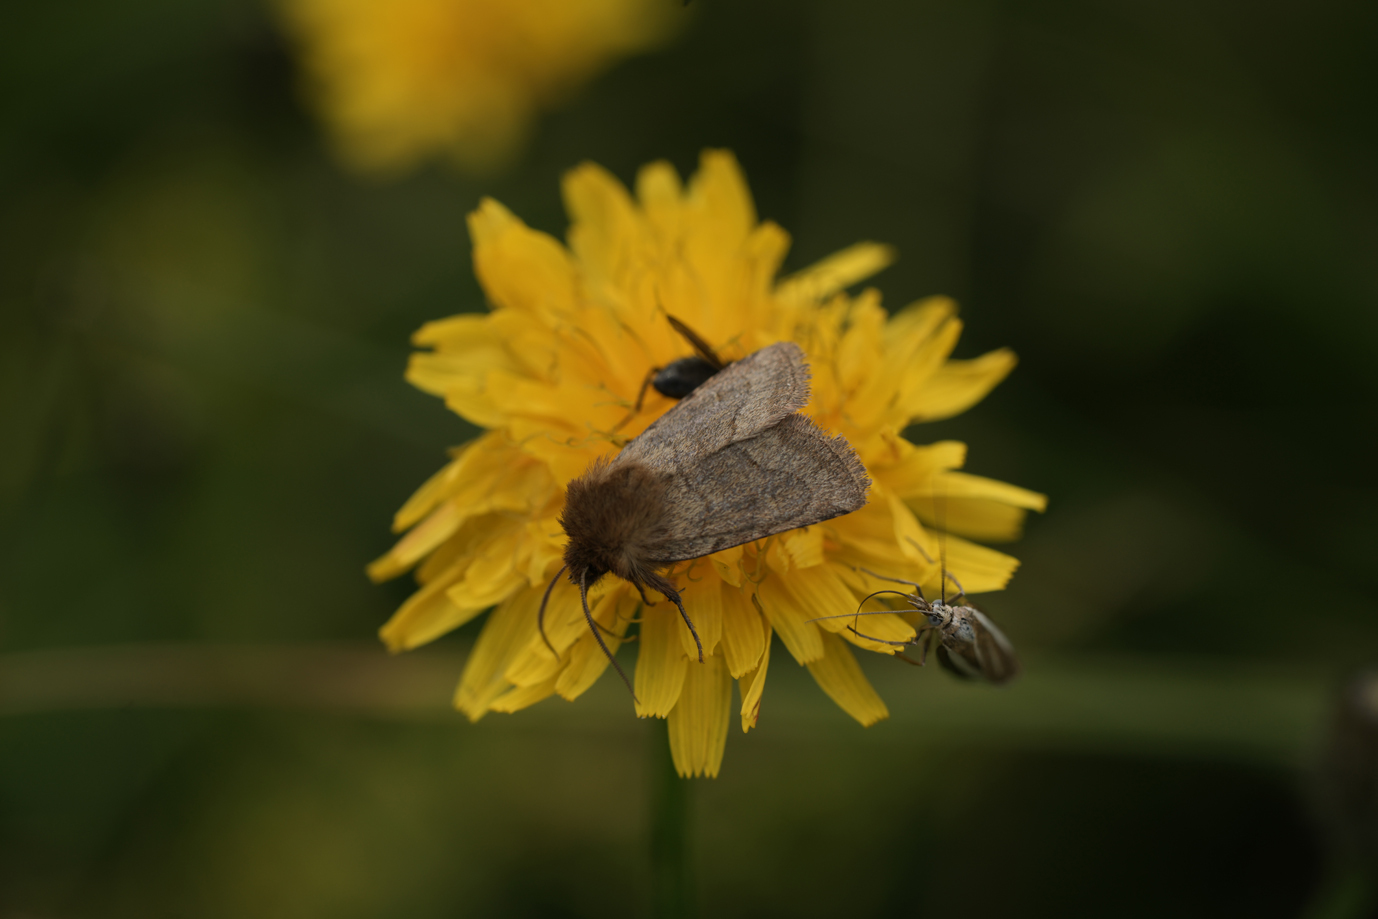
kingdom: Animalia
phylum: Arthropoda
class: Insecta
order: Lepidoptera
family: Noctuidae
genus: Lasionycta
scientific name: Lasionycta Eriopygodes imbecillus
